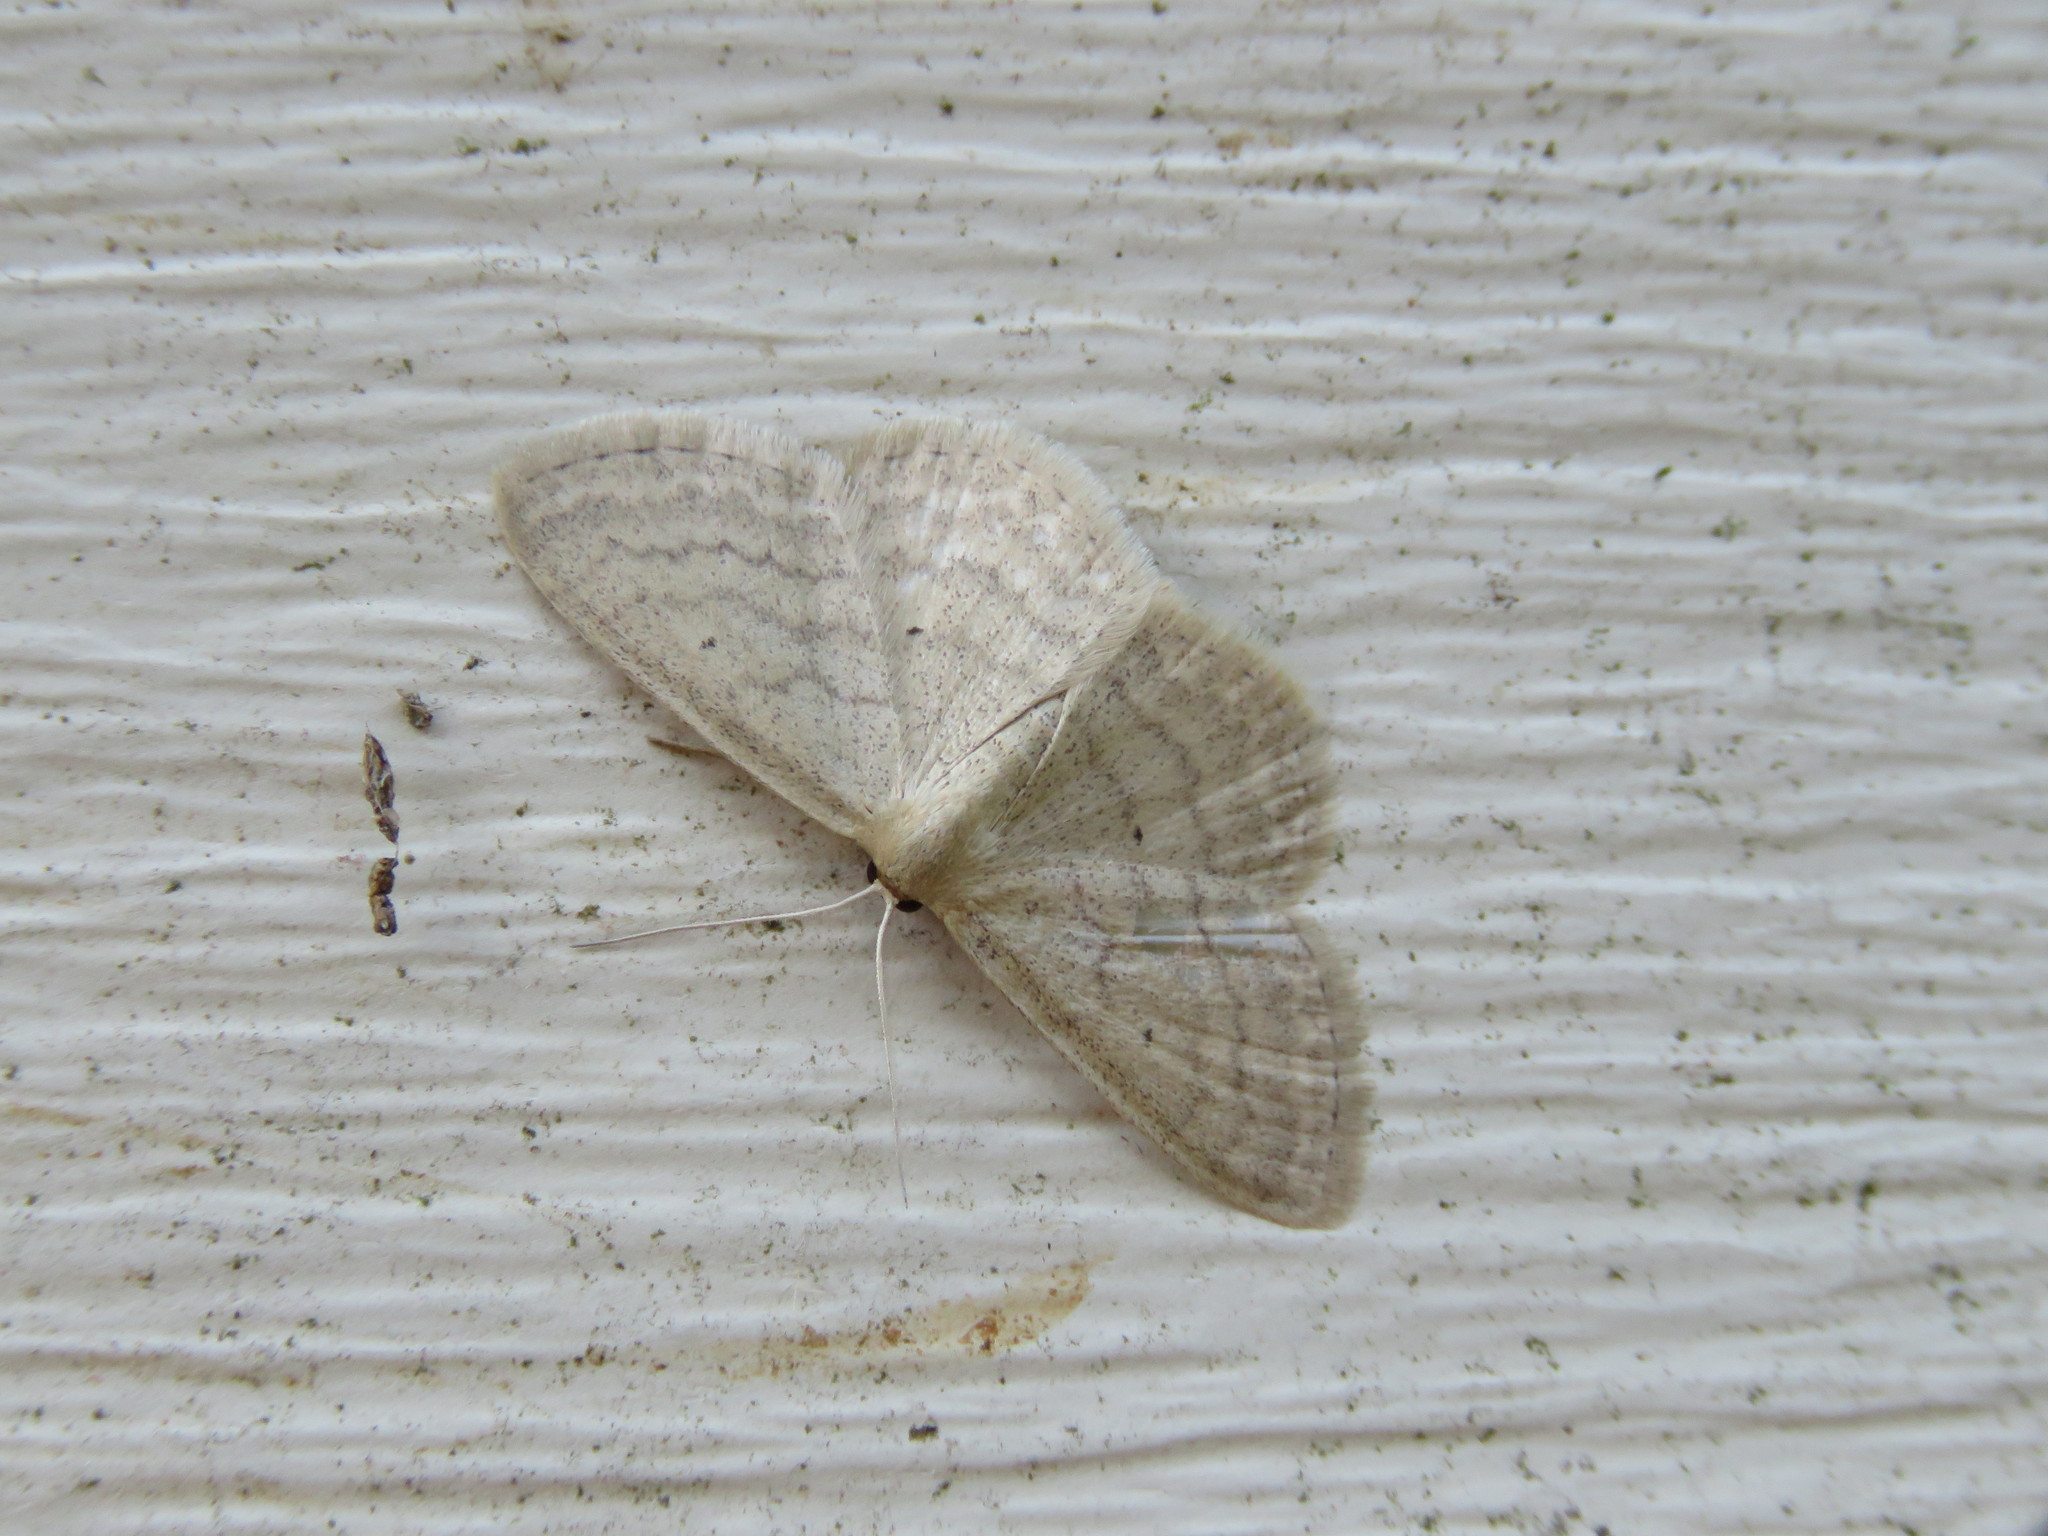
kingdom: Animalia
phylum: Arthropoda
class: Insecta
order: Lepidoptera
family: Geometridae
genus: Scopula
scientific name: Scopula inductata
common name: Soft-lined wave
